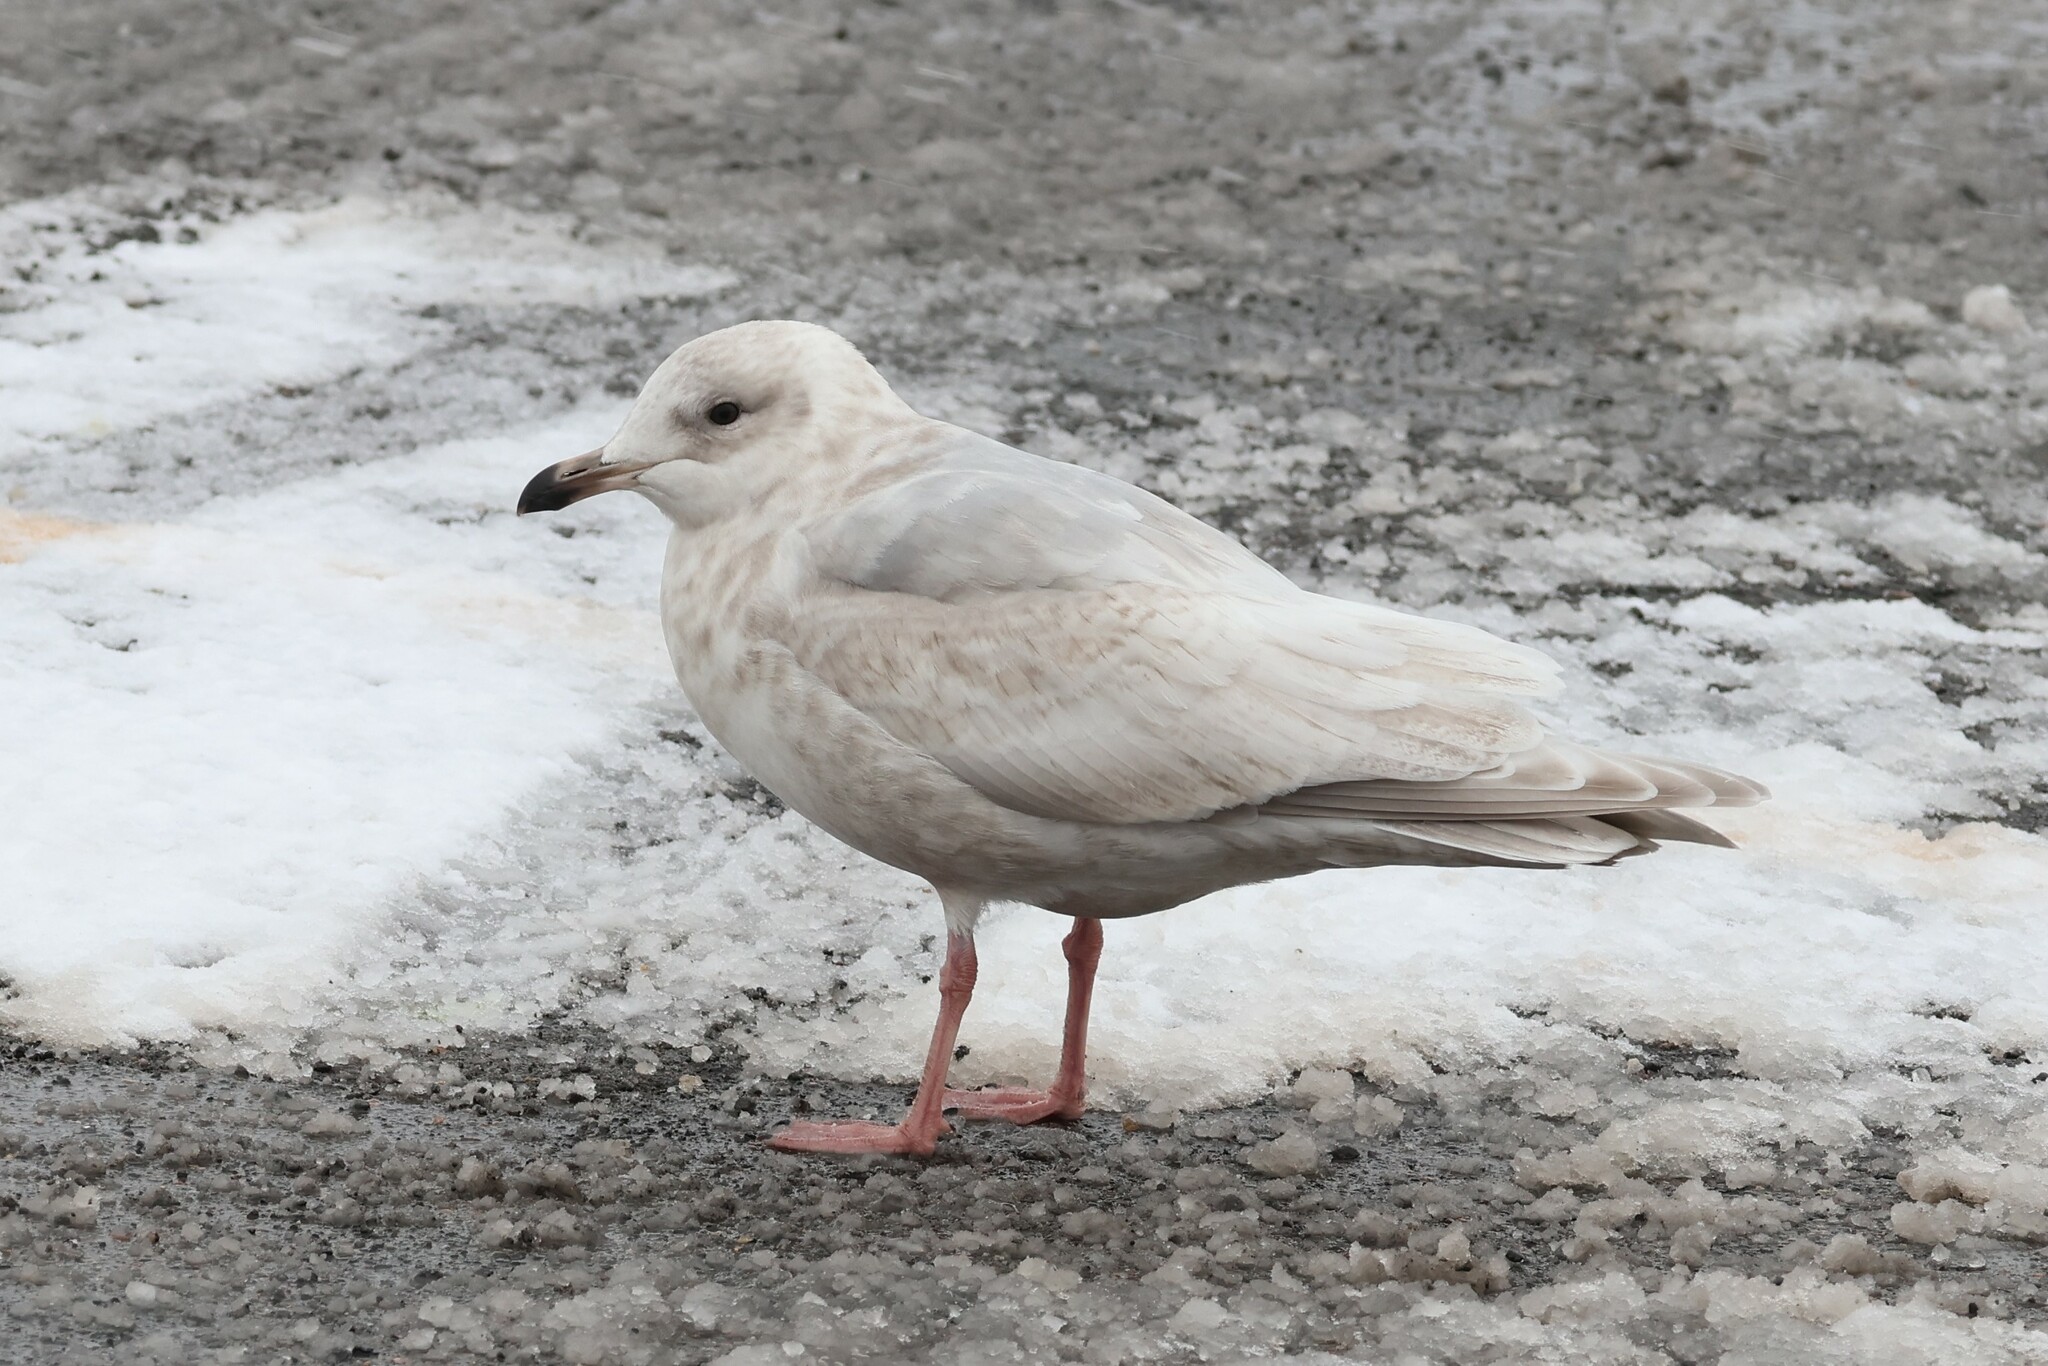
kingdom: Animalia
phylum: Chordata
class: Aves
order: Charadriiformes
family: Laridae
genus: Larus
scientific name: Larus glaucoides
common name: Iceland gull
